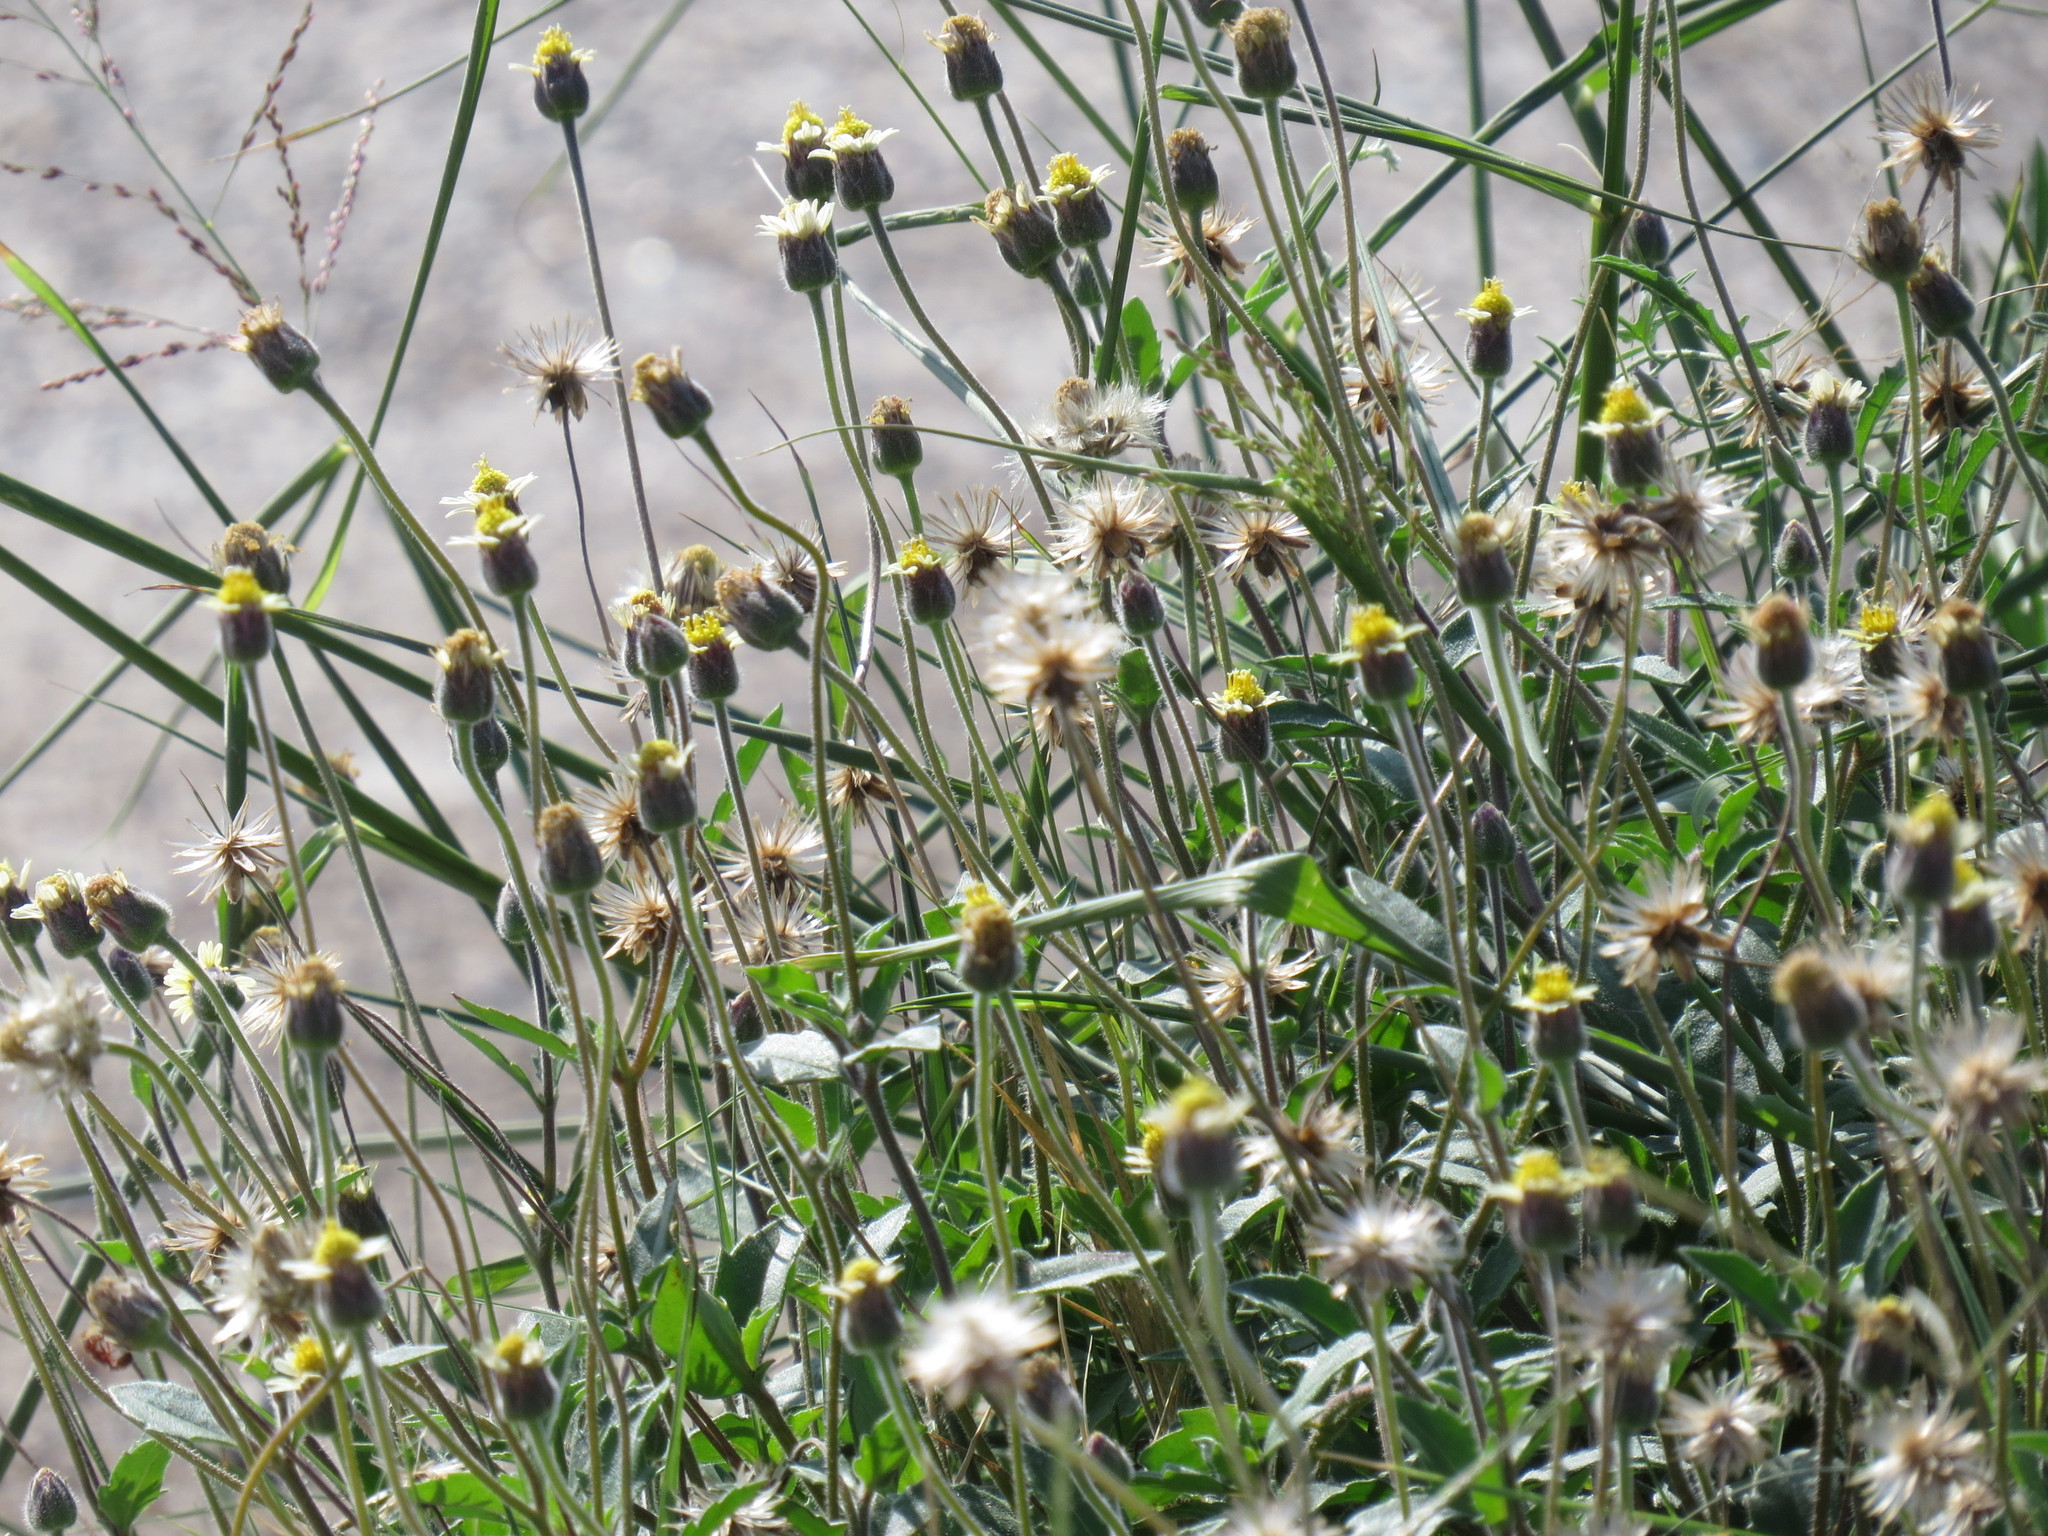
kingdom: Plantae
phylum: Tracheophyta
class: Magnoliopsida
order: Asterales
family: Asteraceae
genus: Tridax
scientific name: Tridax procumbens
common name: Coatbuttons
